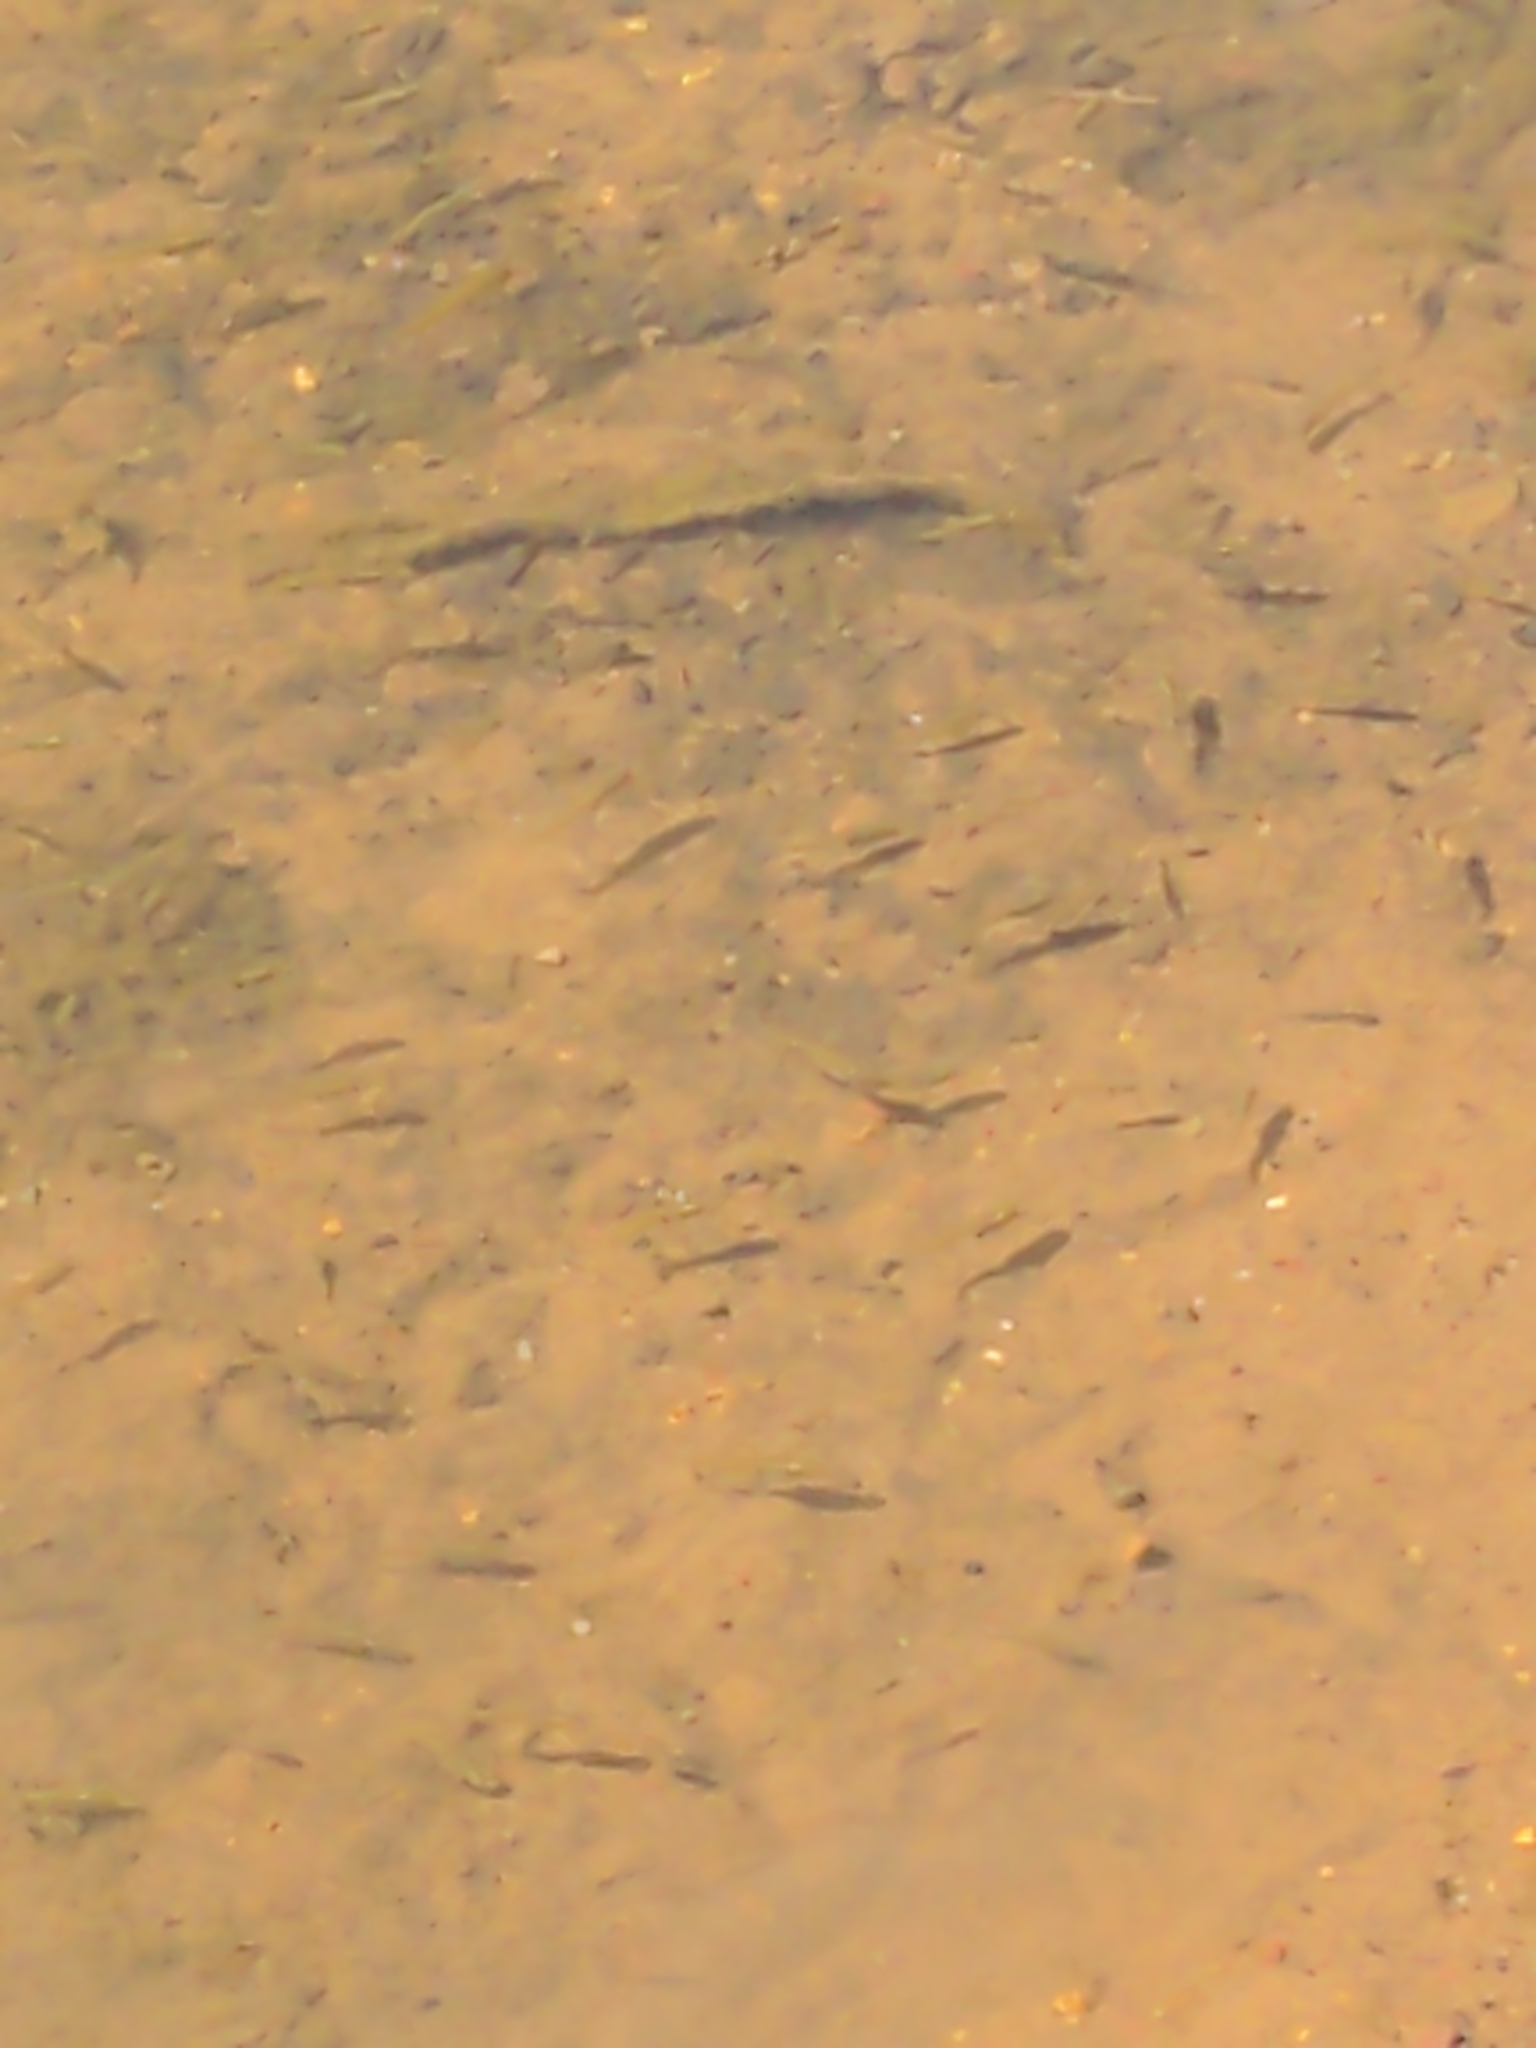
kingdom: Animalia
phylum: Chordata
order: Cyprinodontiformes
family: Poeciliidae
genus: Gambusia
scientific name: Gambusia holbrooki
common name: Eastern mosquitofish
